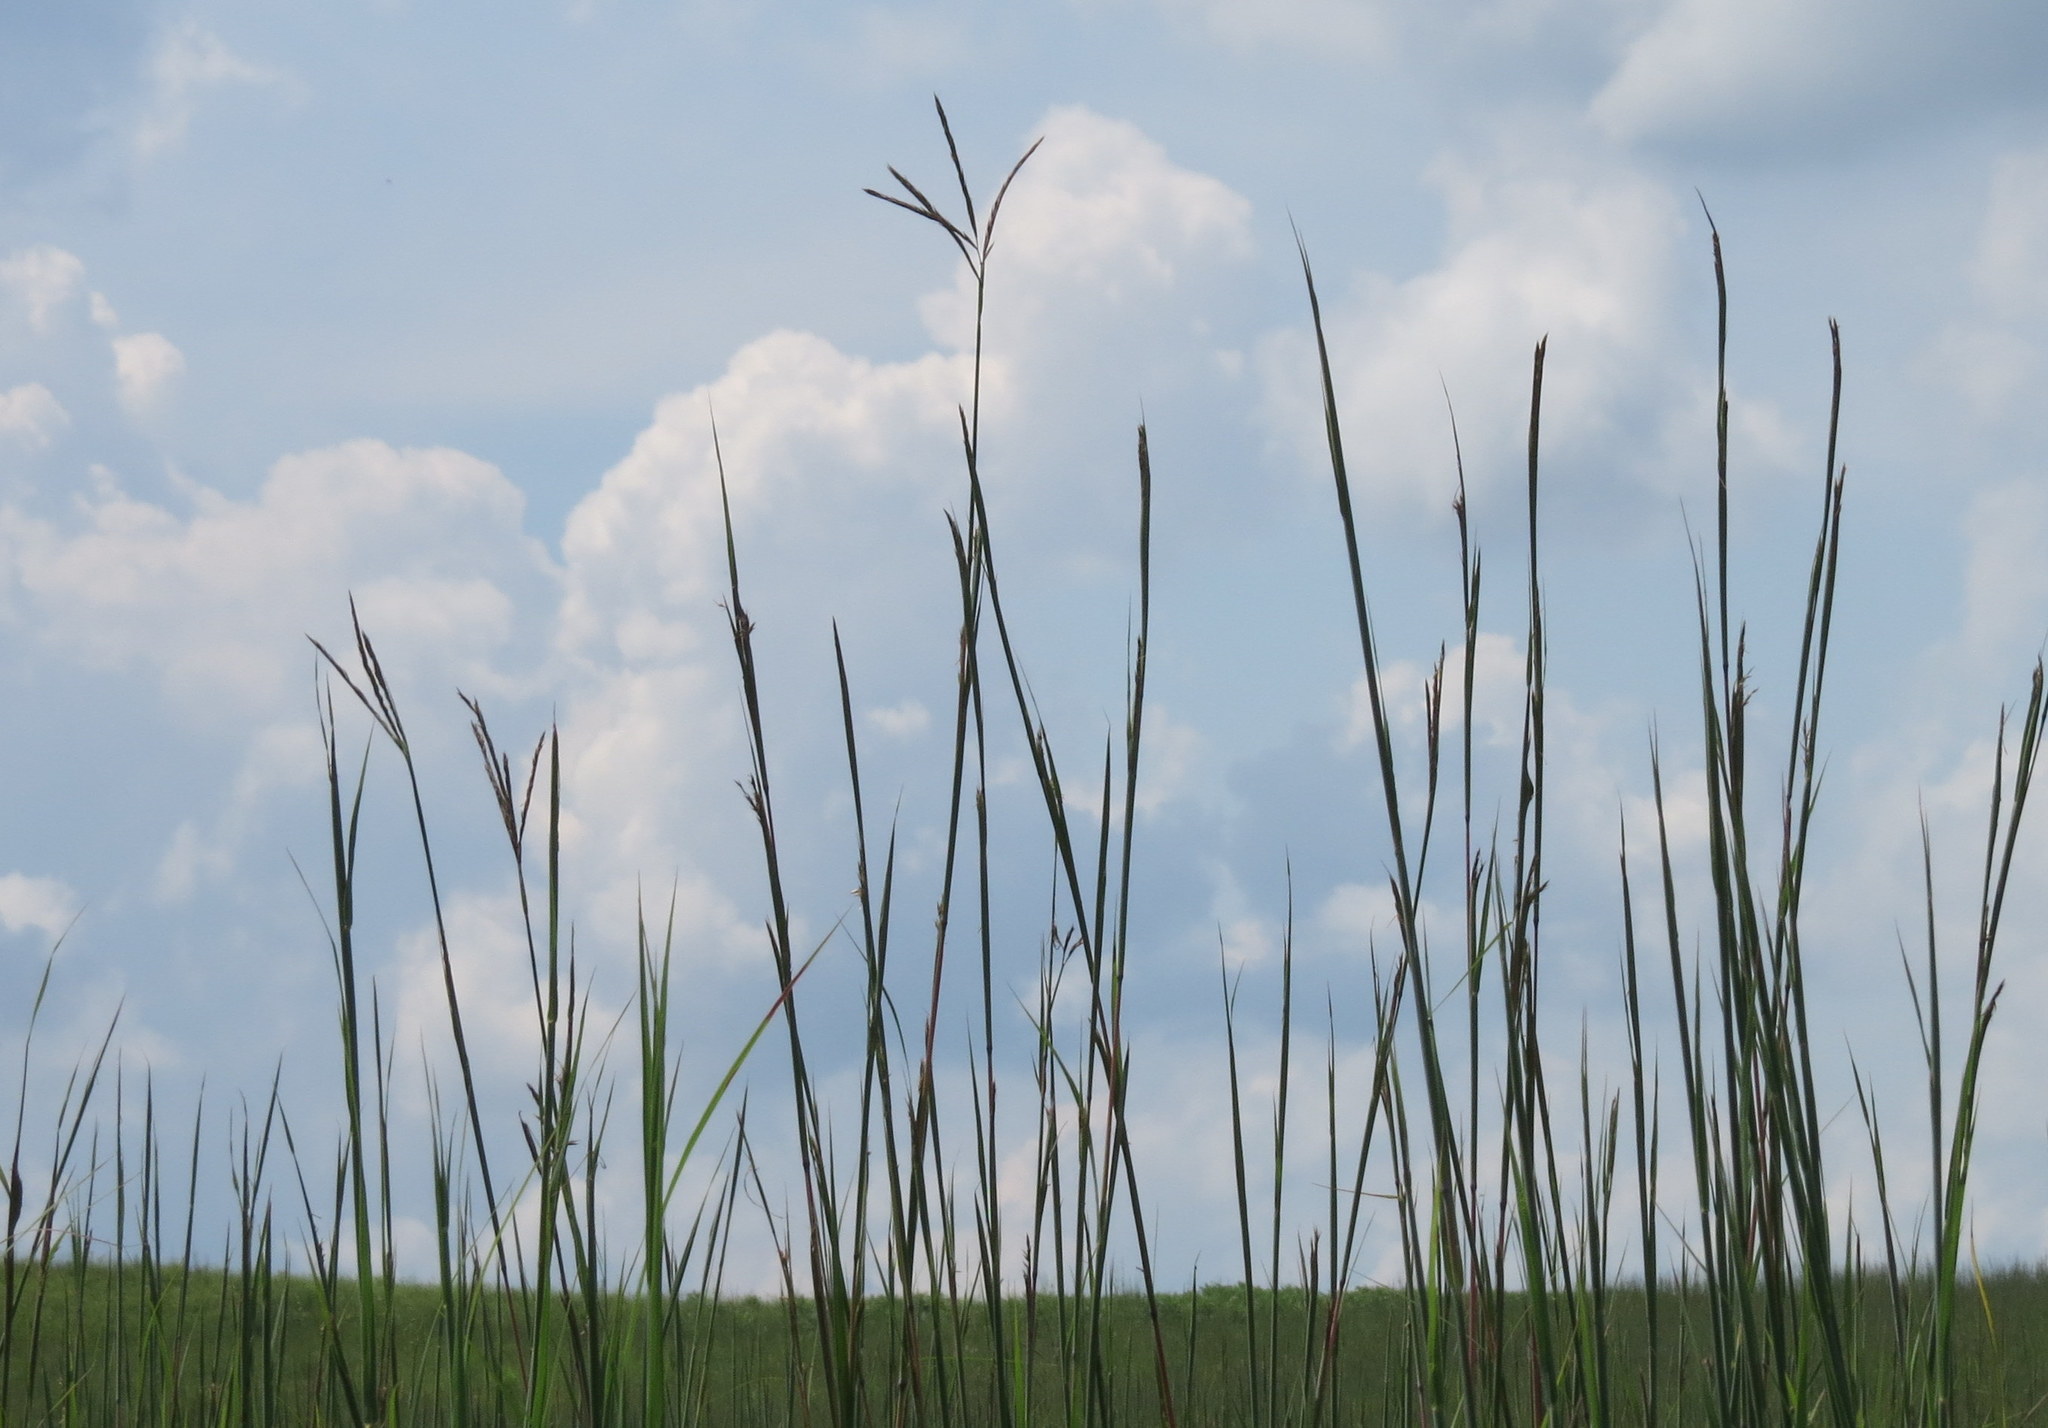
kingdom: Plantae
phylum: Tracheophyta
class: Liliopsida
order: Poales
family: Poaceae
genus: Andropogon
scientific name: Andropogon gerardi
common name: Big bluestem
